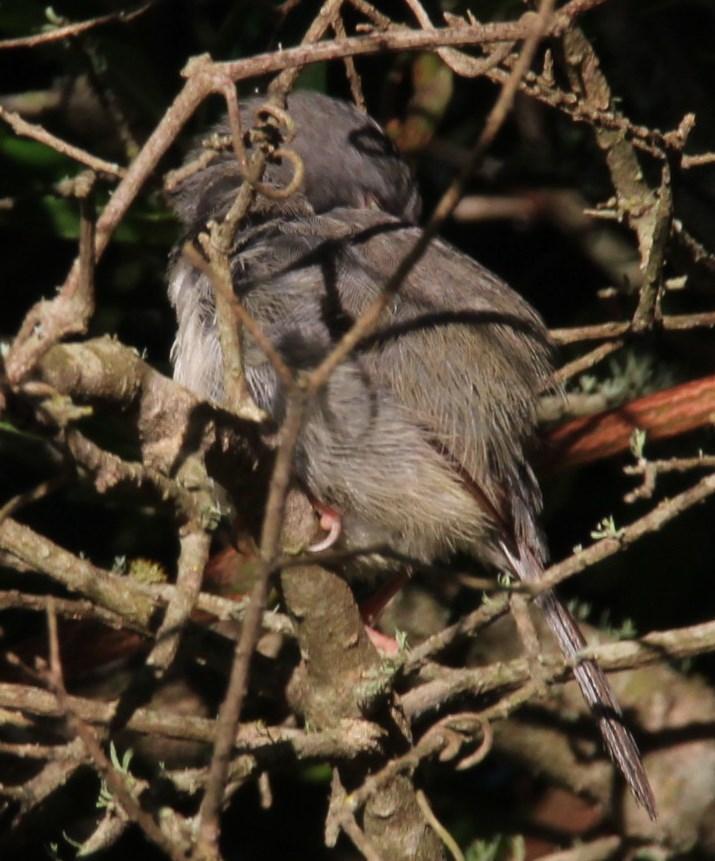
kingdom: Animalia
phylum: Chordata
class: Aves
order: Passeriformes
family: Cisticolidae
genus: Apalis
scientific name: Apalis thoracica
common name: Bar-throated apalis
